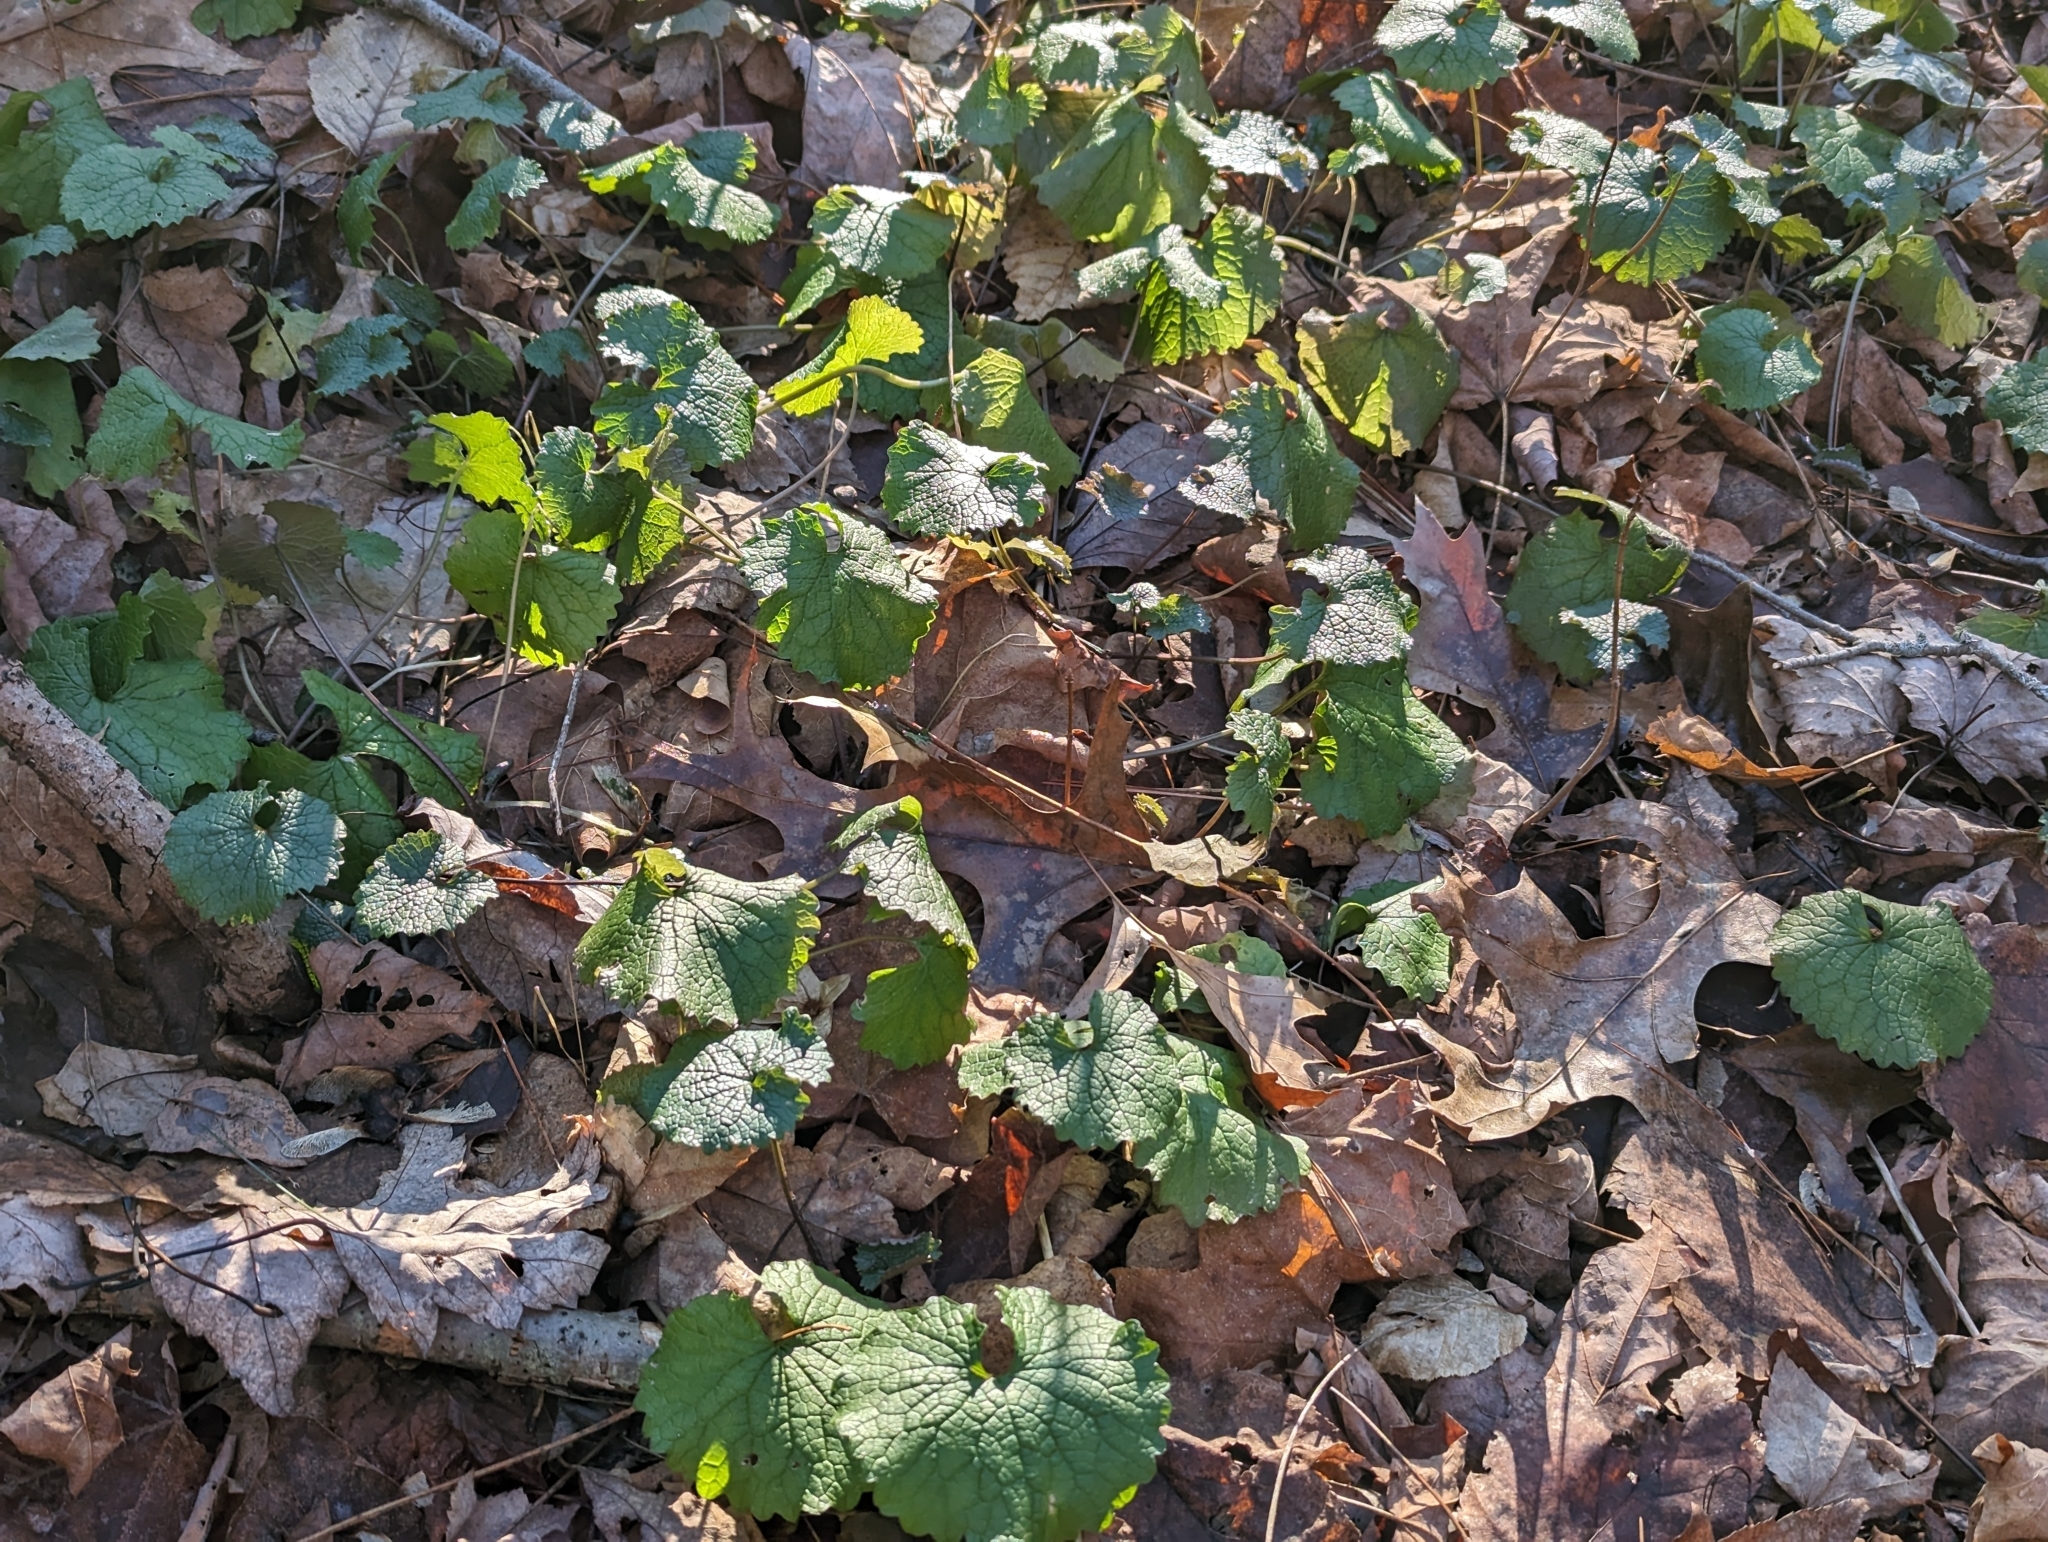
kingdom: Plantae
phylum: Tracheophyta
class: Magnoliopsida
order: Brassicales
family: Brassicaceae
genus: Alliaria
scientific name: Alliaria petiolata
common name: Garlic mustard
